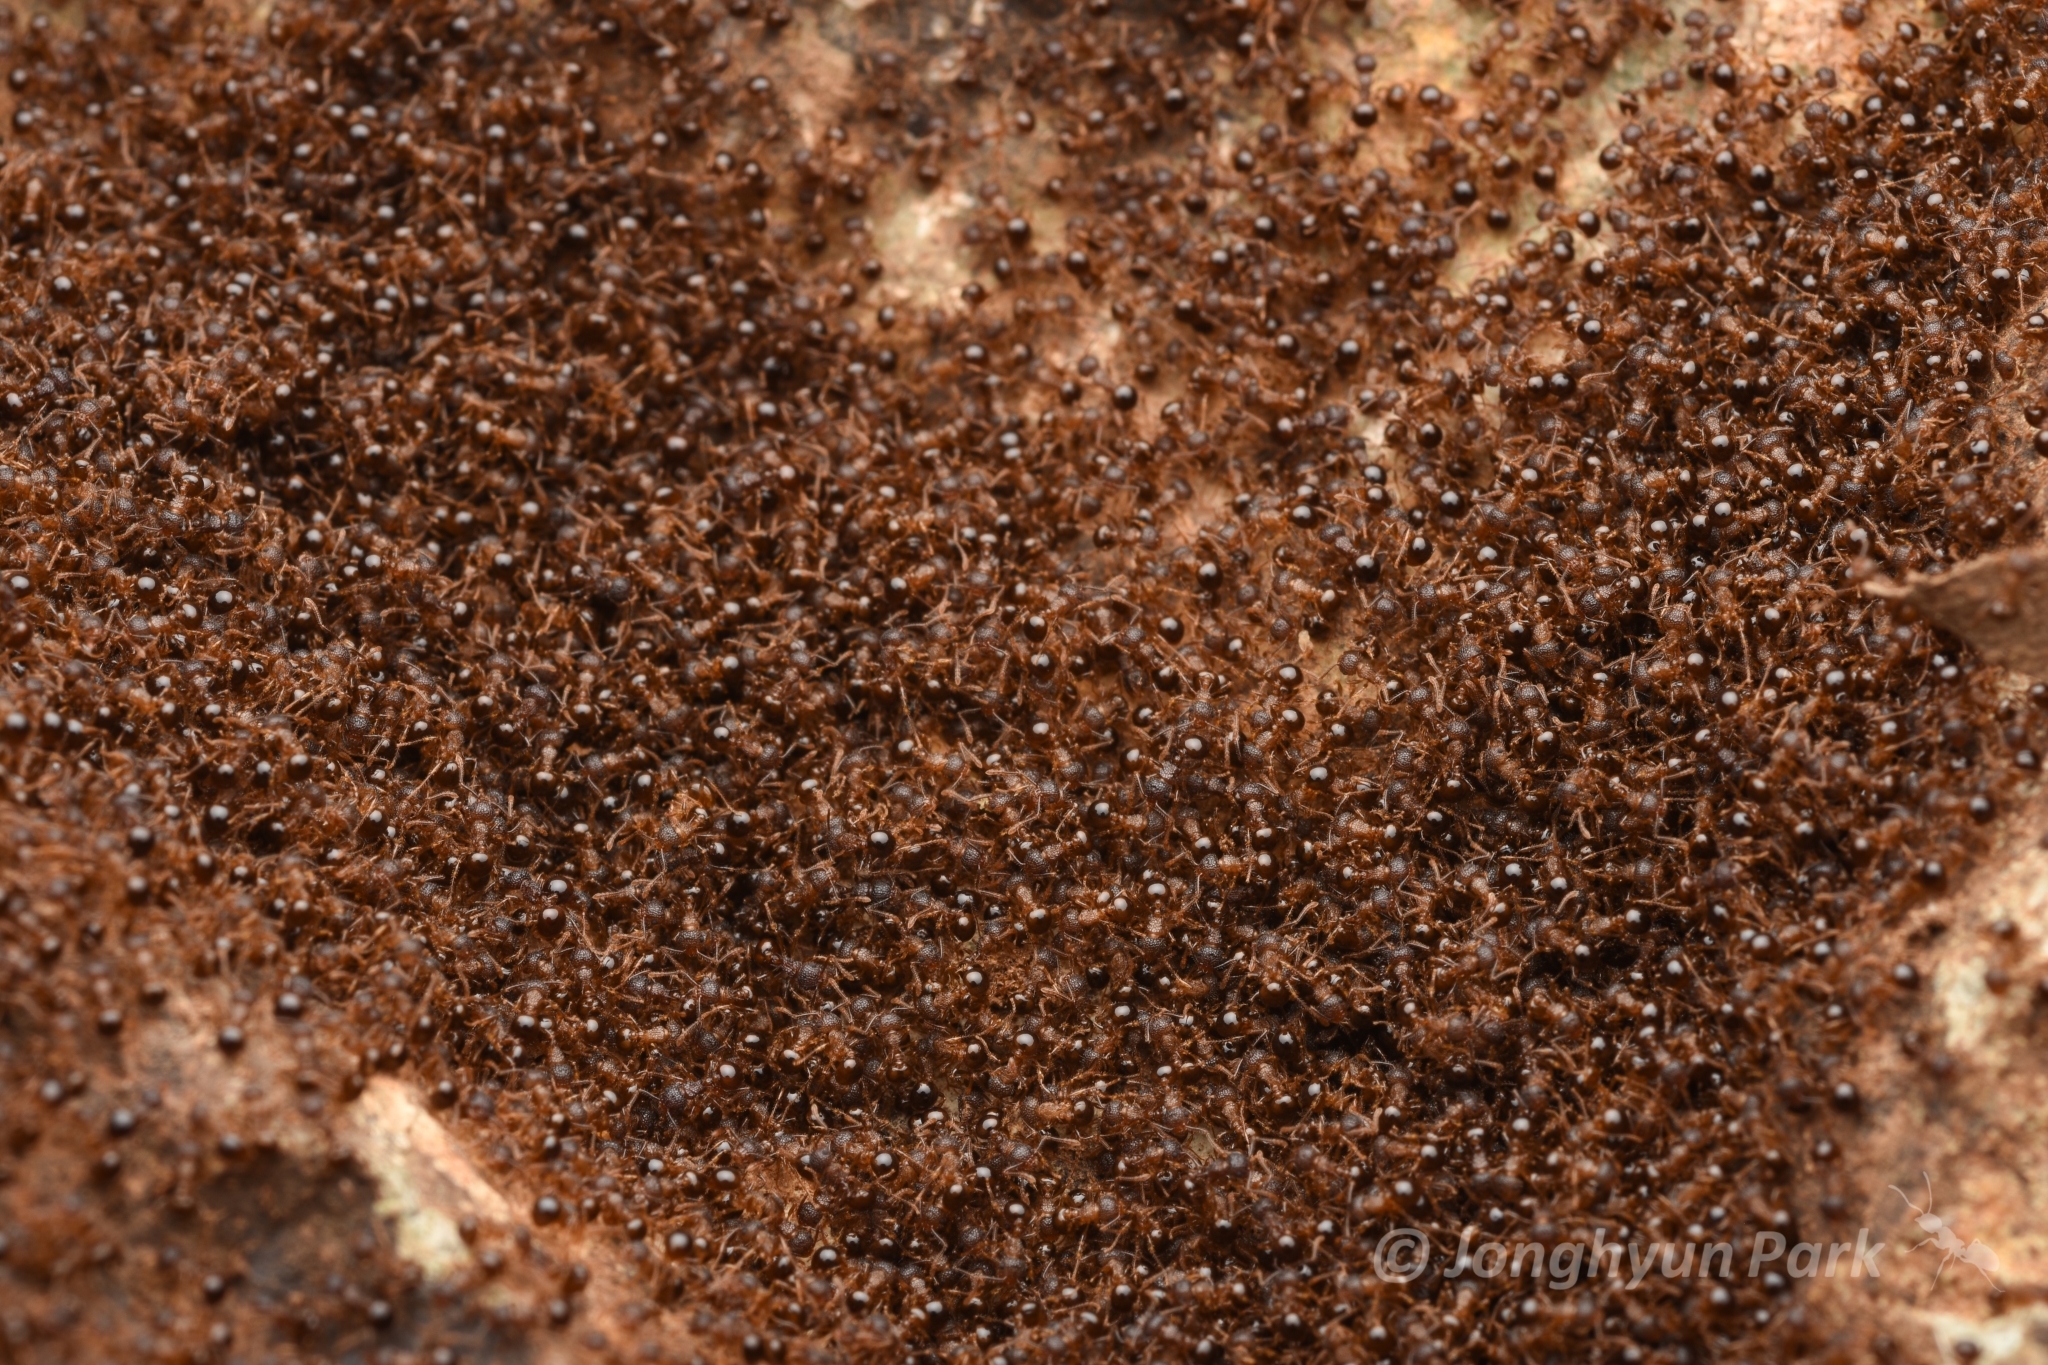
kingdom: Animalia
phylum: Arthropoda
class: Insecta
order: Hymenoptera
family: Formicidae
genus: Pristomyrmex
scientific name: Pristomyrmex punctatus
